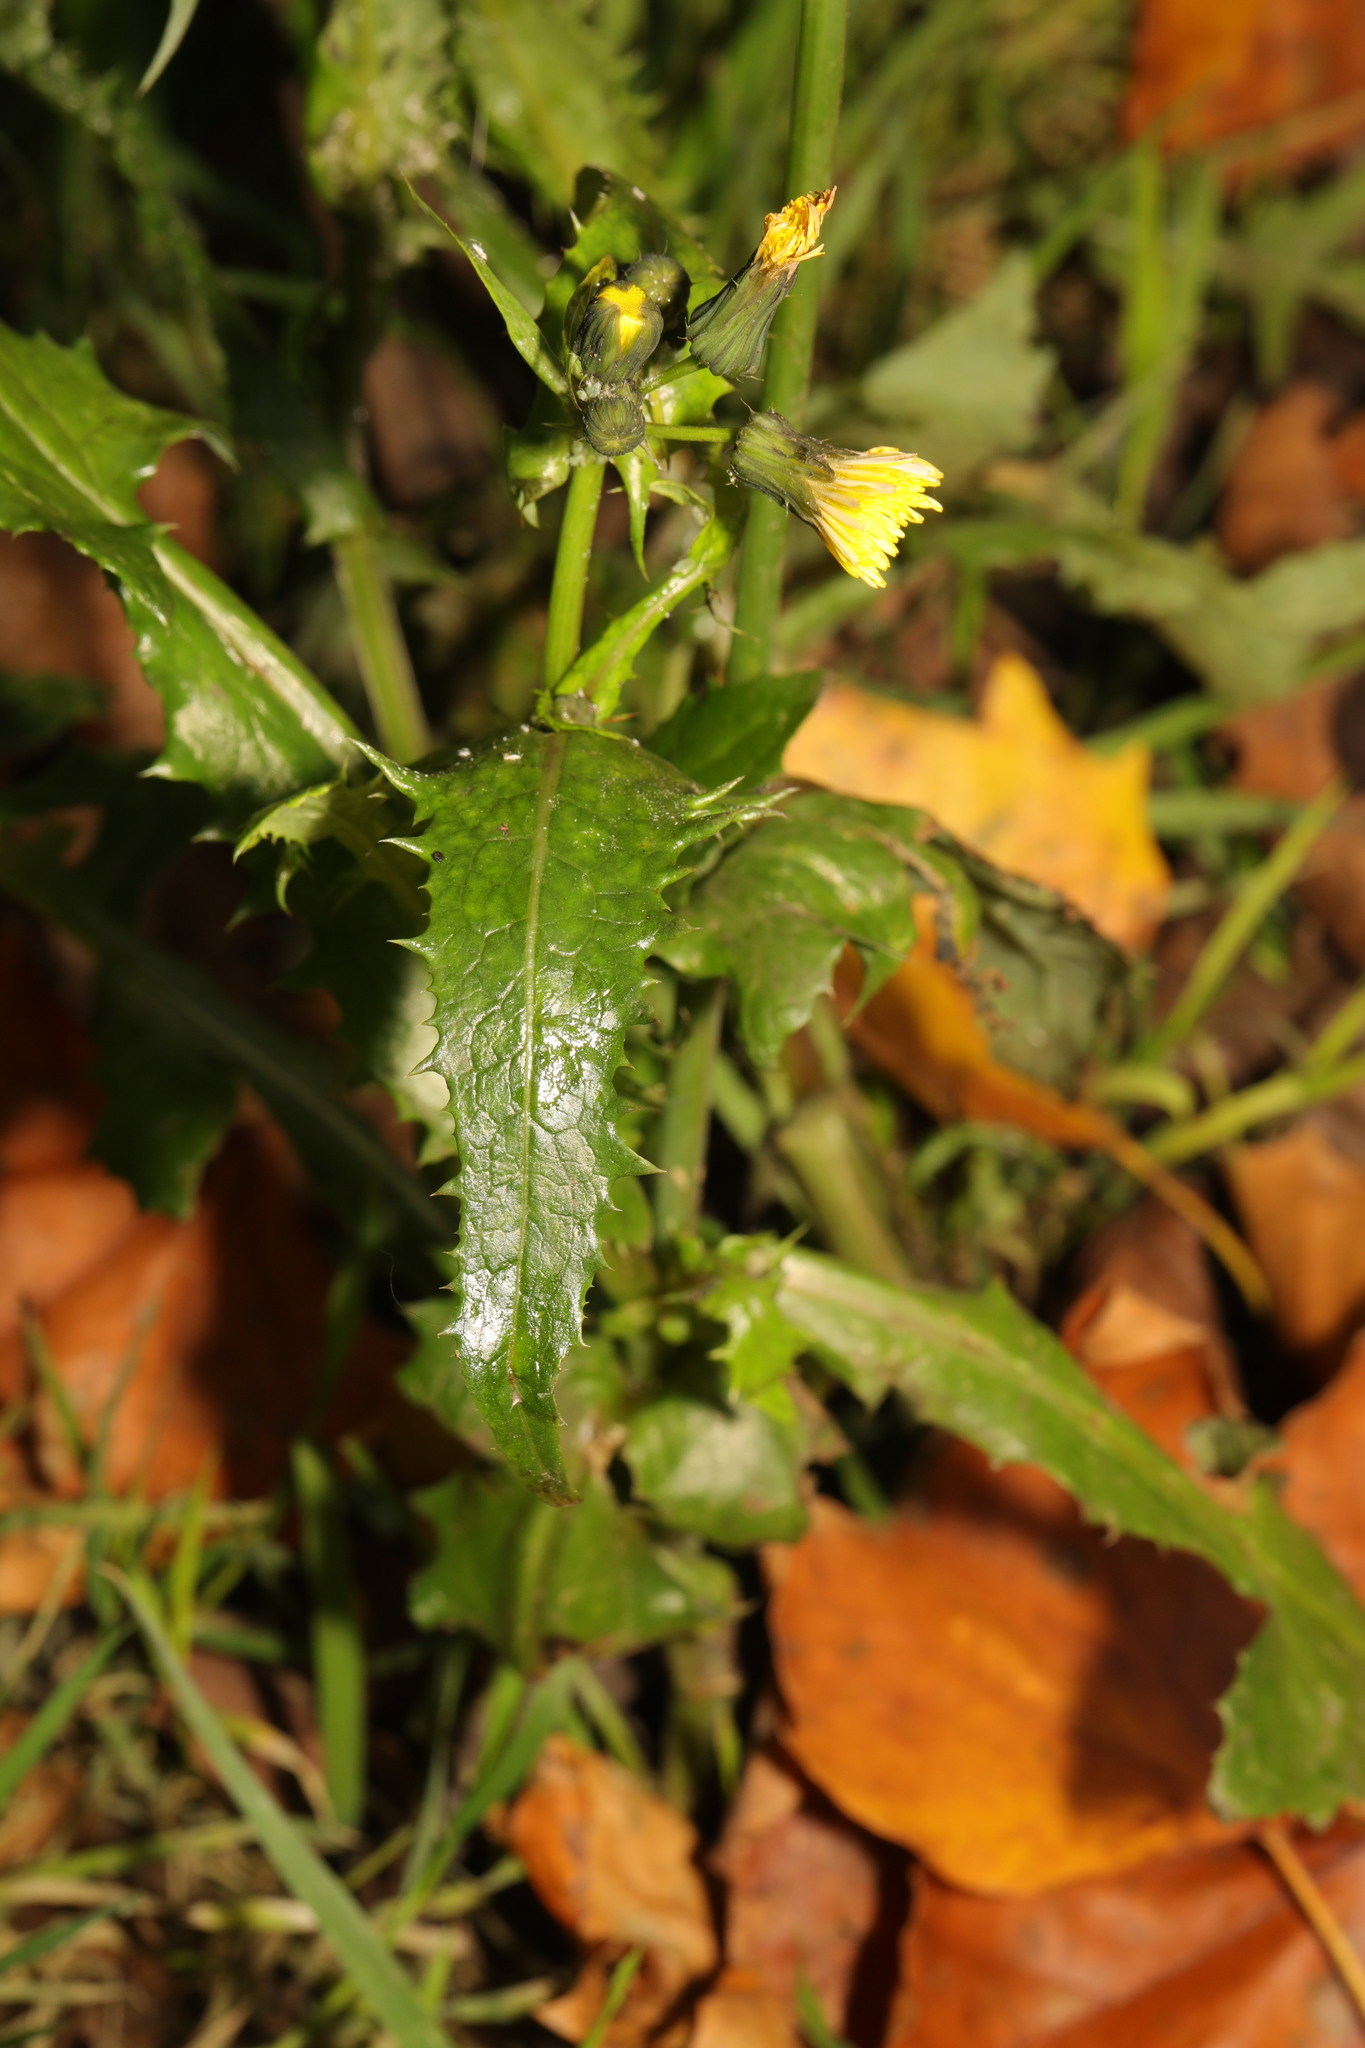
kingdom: Plantae
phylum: Tracheophyta
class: Magnoliopsida
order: Asterales
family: Asteraceae
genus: Sonchus
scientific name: Sonchus asper
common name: Prickly sow-thistle
